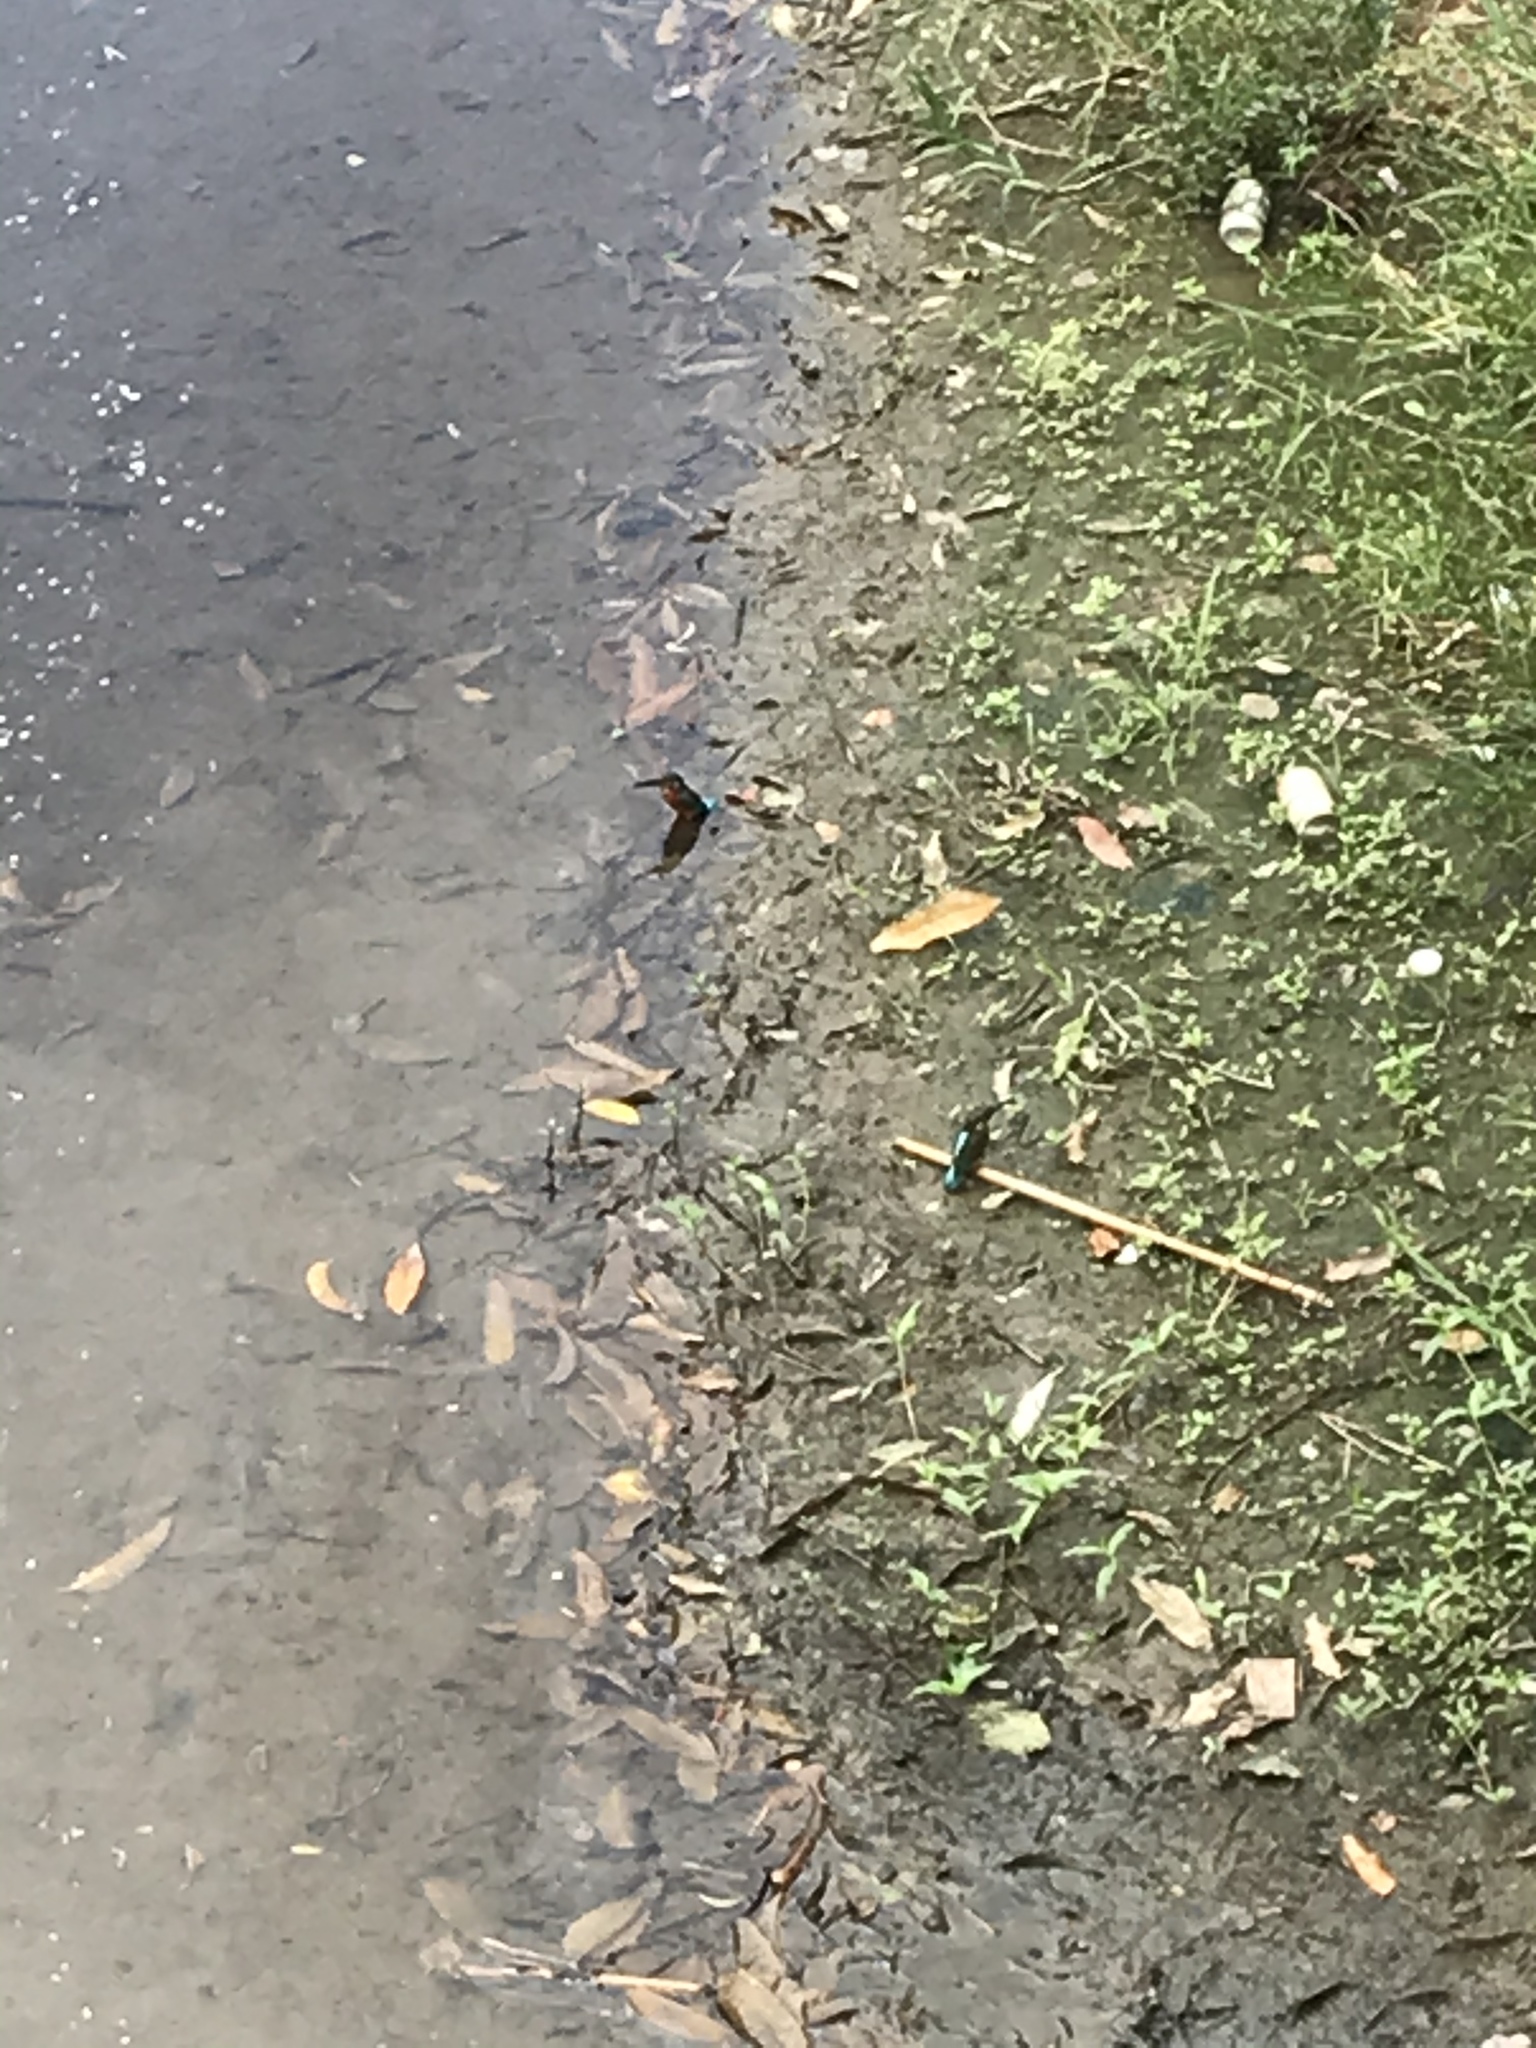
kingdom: Animalia
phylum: Chordata
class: Aves
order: Coraciiformes
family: Alcedinidae
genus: Alcedo
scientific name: Alcedo atthis
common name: Common kingfisher
